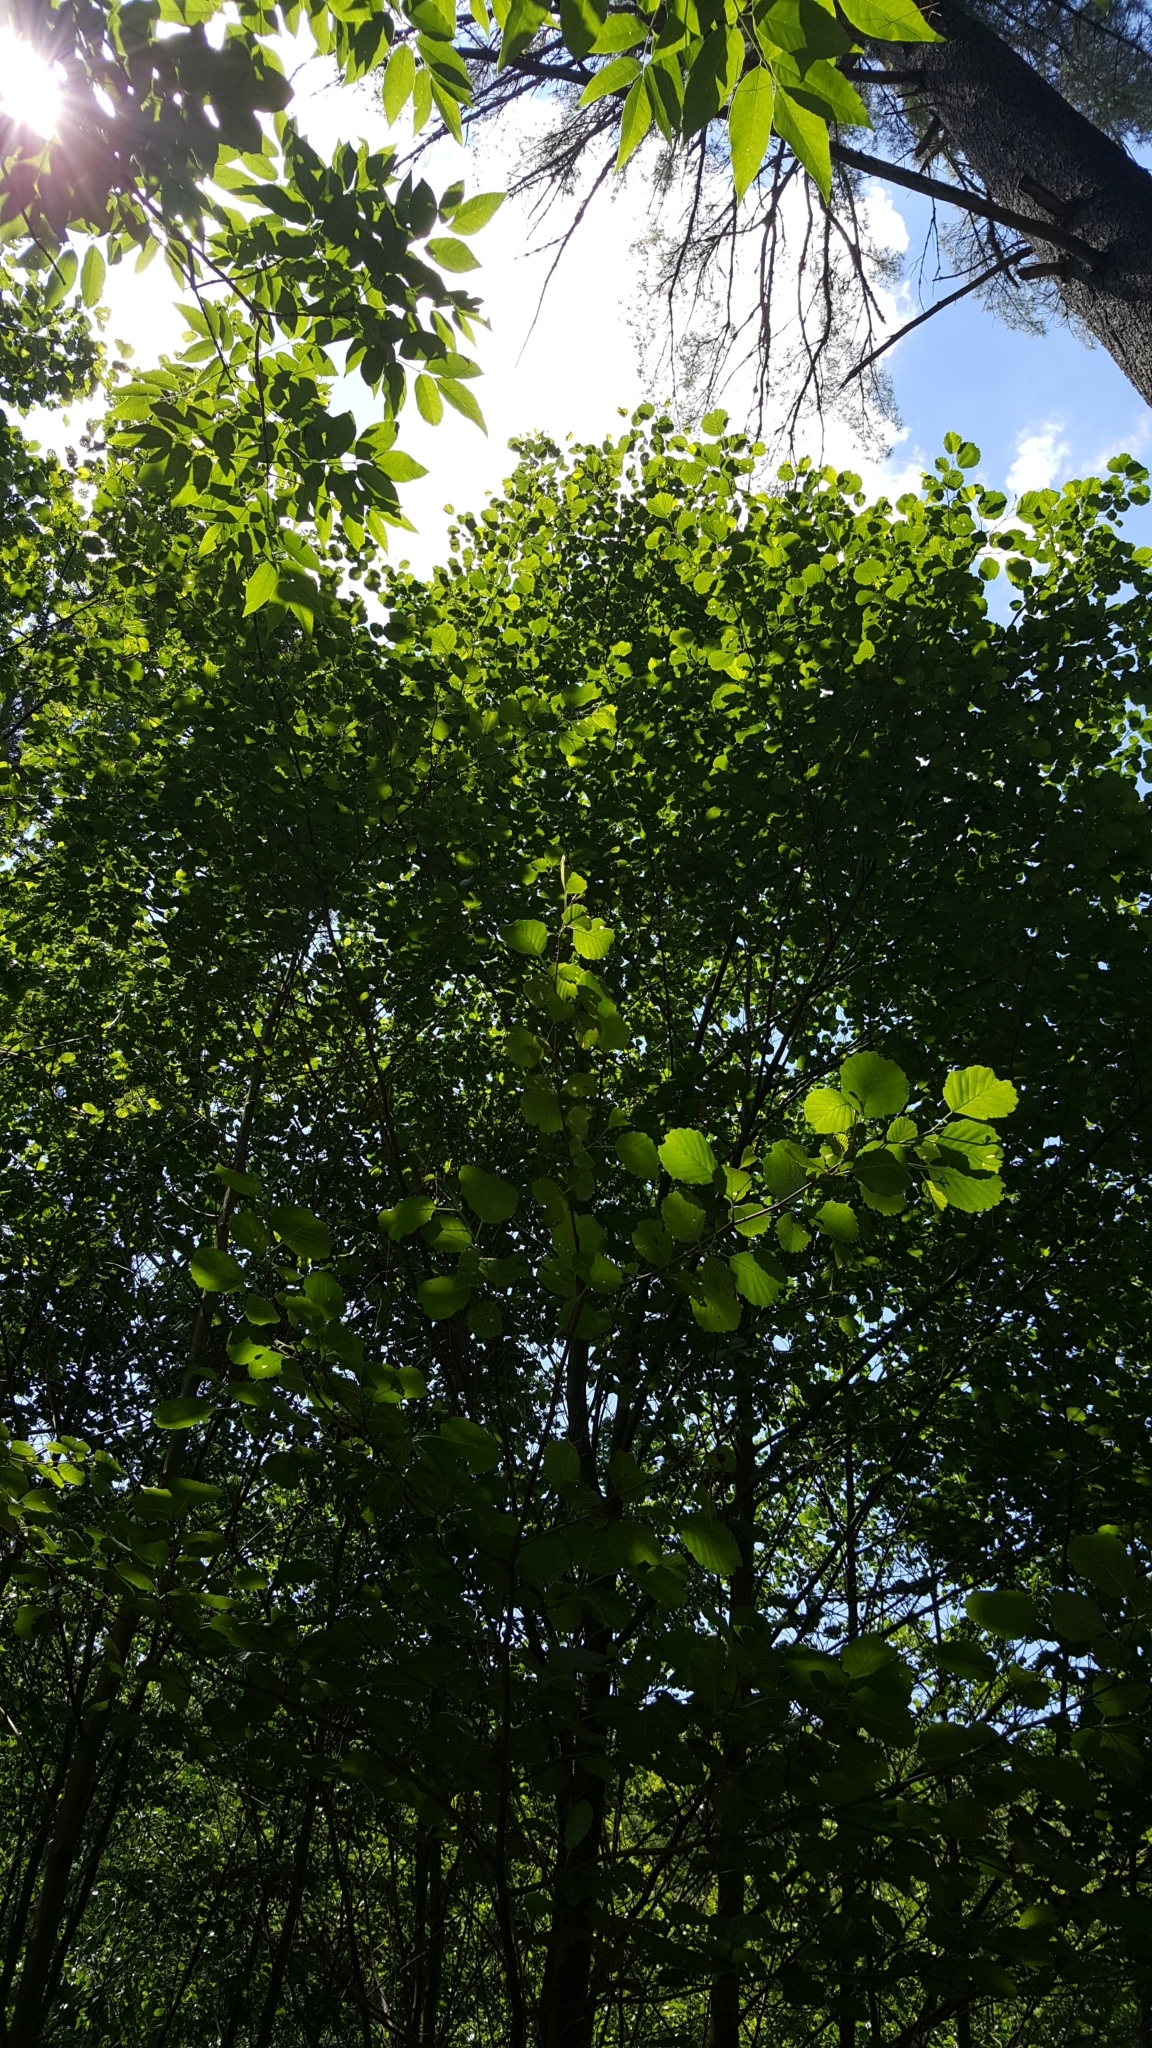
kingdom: Plantae
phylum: Tracheophyta
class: Magnoliopsida
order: Fagales
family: Betulaceae
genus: Alnus
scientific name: Alnus glutinosa
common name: Black alder
